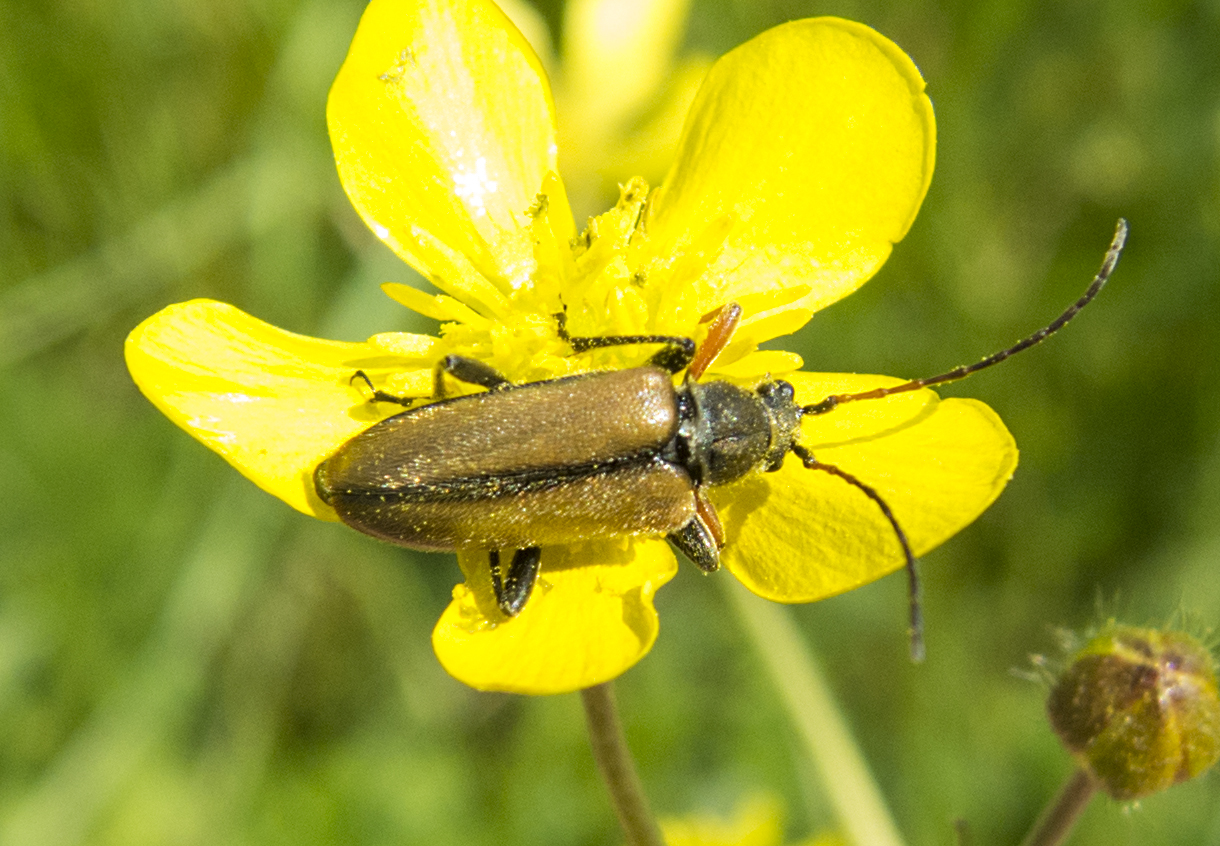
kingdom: Animalia
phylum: Arthropoda
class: Insecta
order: Coleoptera
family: Cerambycidae
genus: Cortodera
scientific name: Cortodera flavimana
